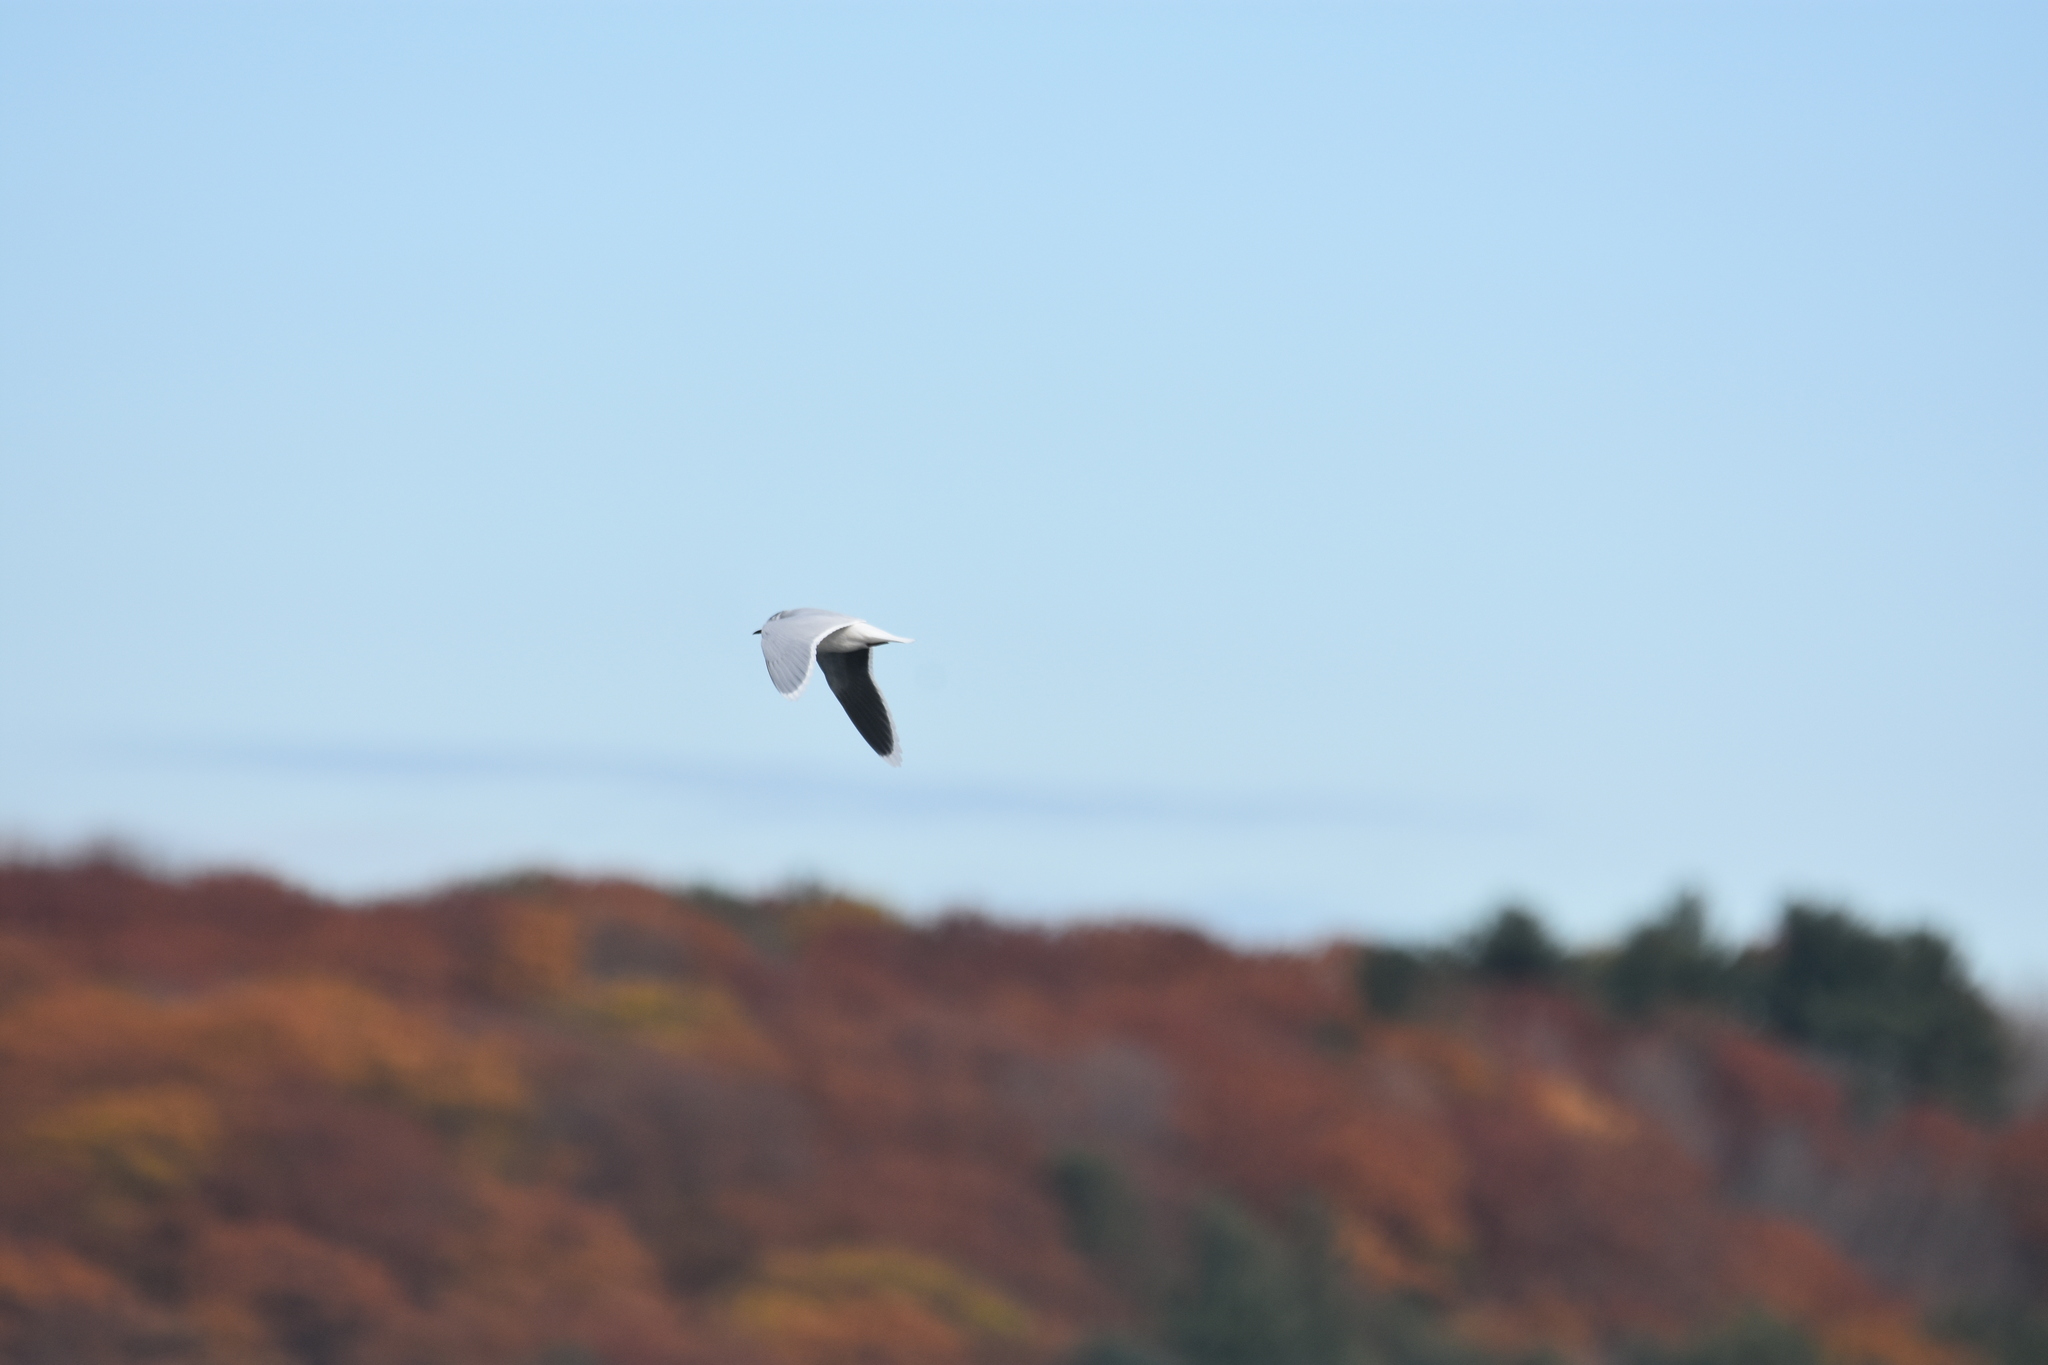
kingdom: Animalia
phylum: Chordata
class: Aves
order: Charadriiformes
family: Laridae
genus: Hydrocoloeus
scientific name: Hydrocoloeus minutus
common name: Little gull
